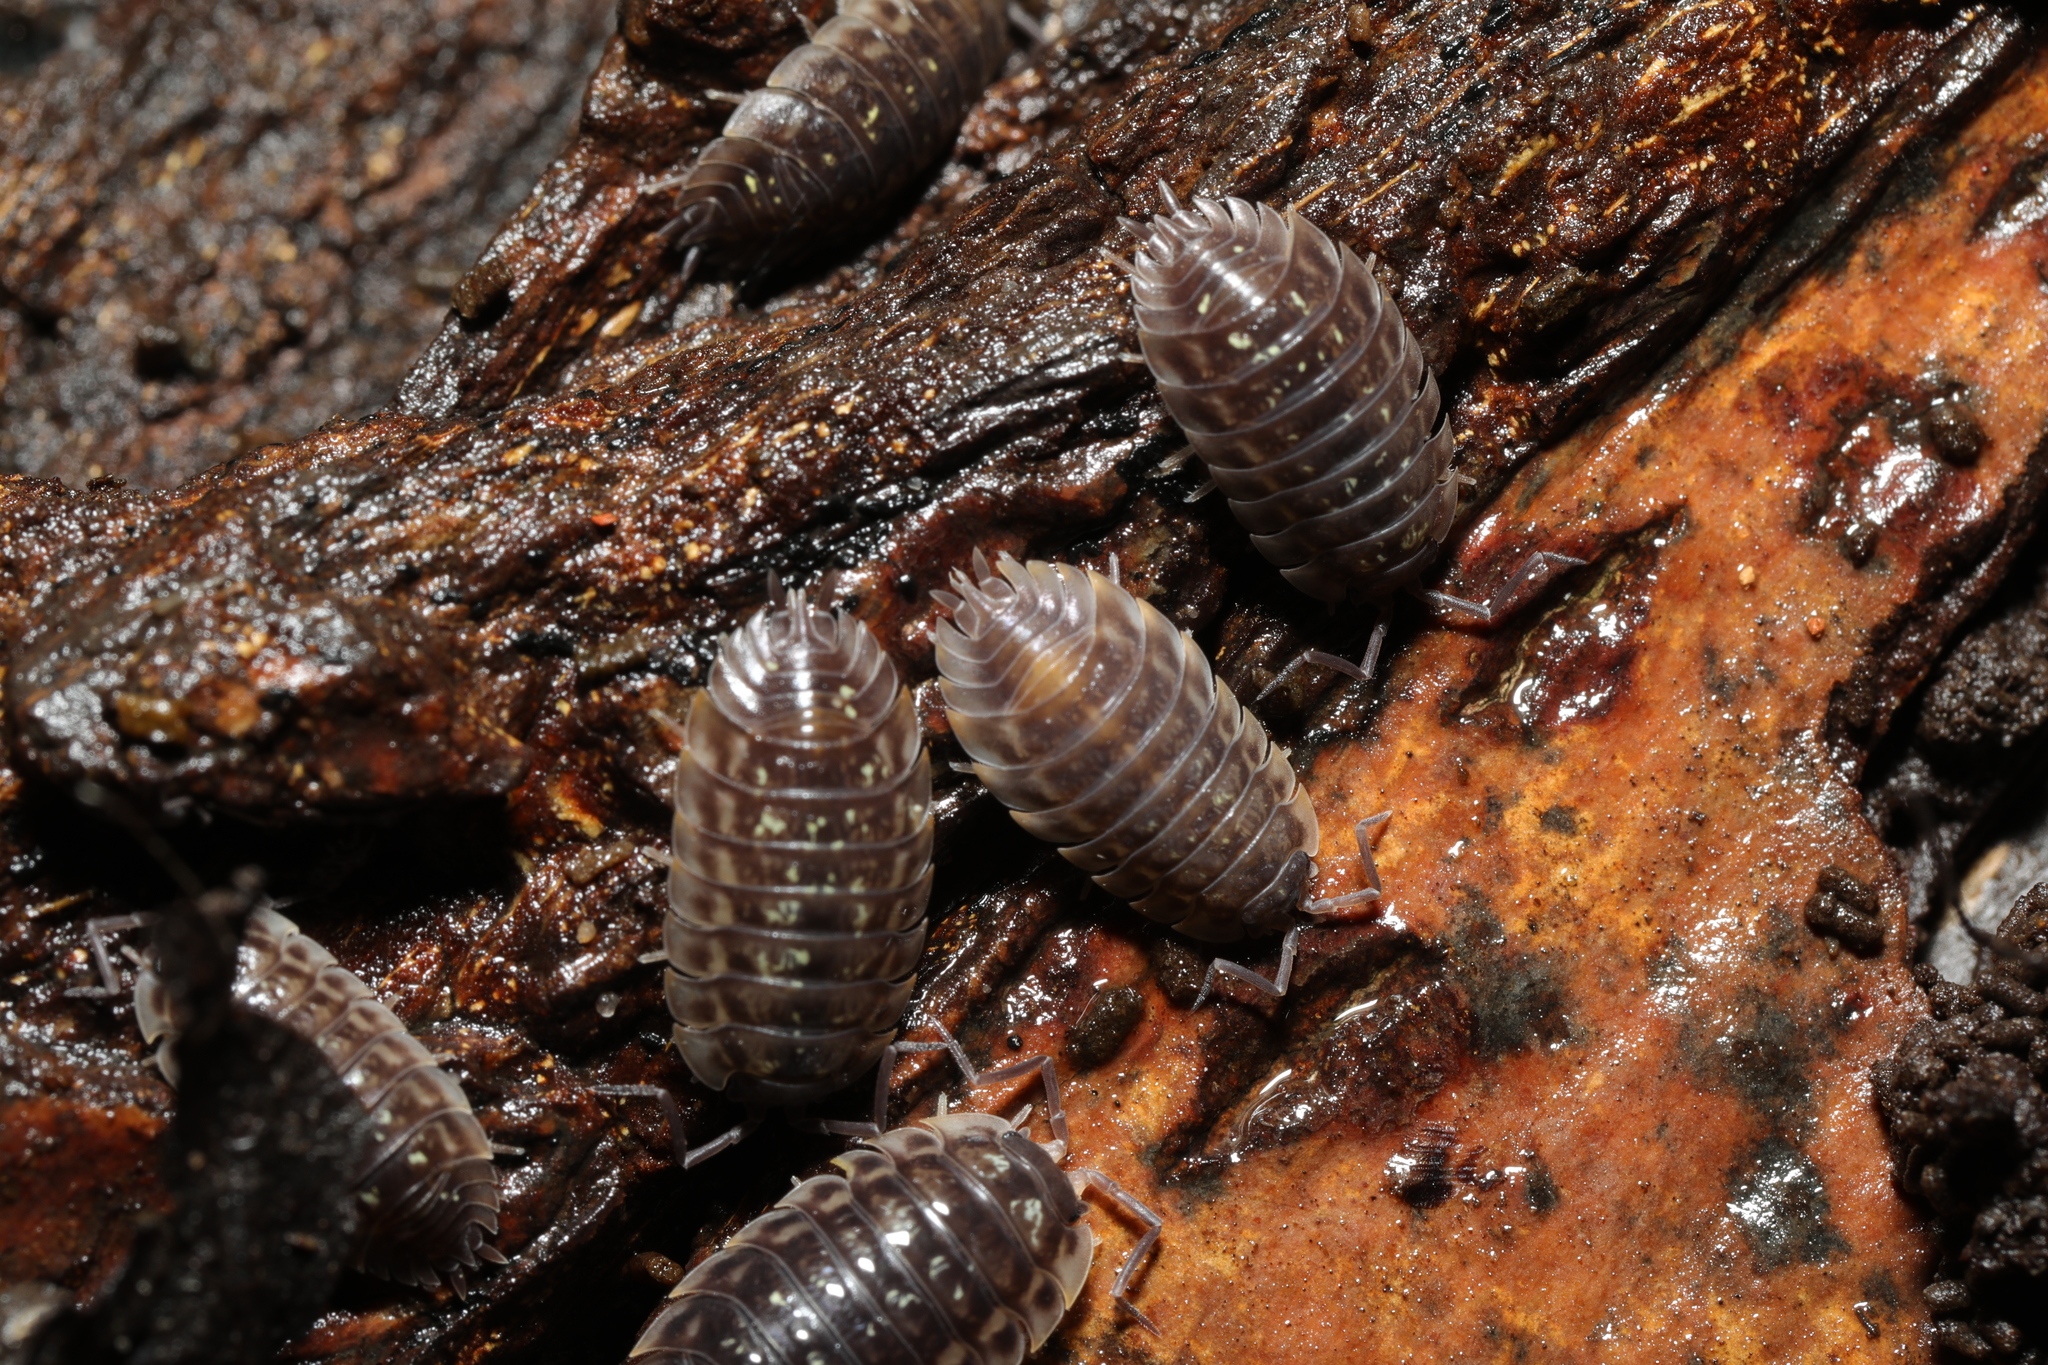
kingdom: Animalia
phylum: Arthropoda
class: Malacostraca
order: Isopoda
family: Oniscidae
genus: Oniscus
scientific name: Oniscus asellus
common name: Common shiny woodlouse
